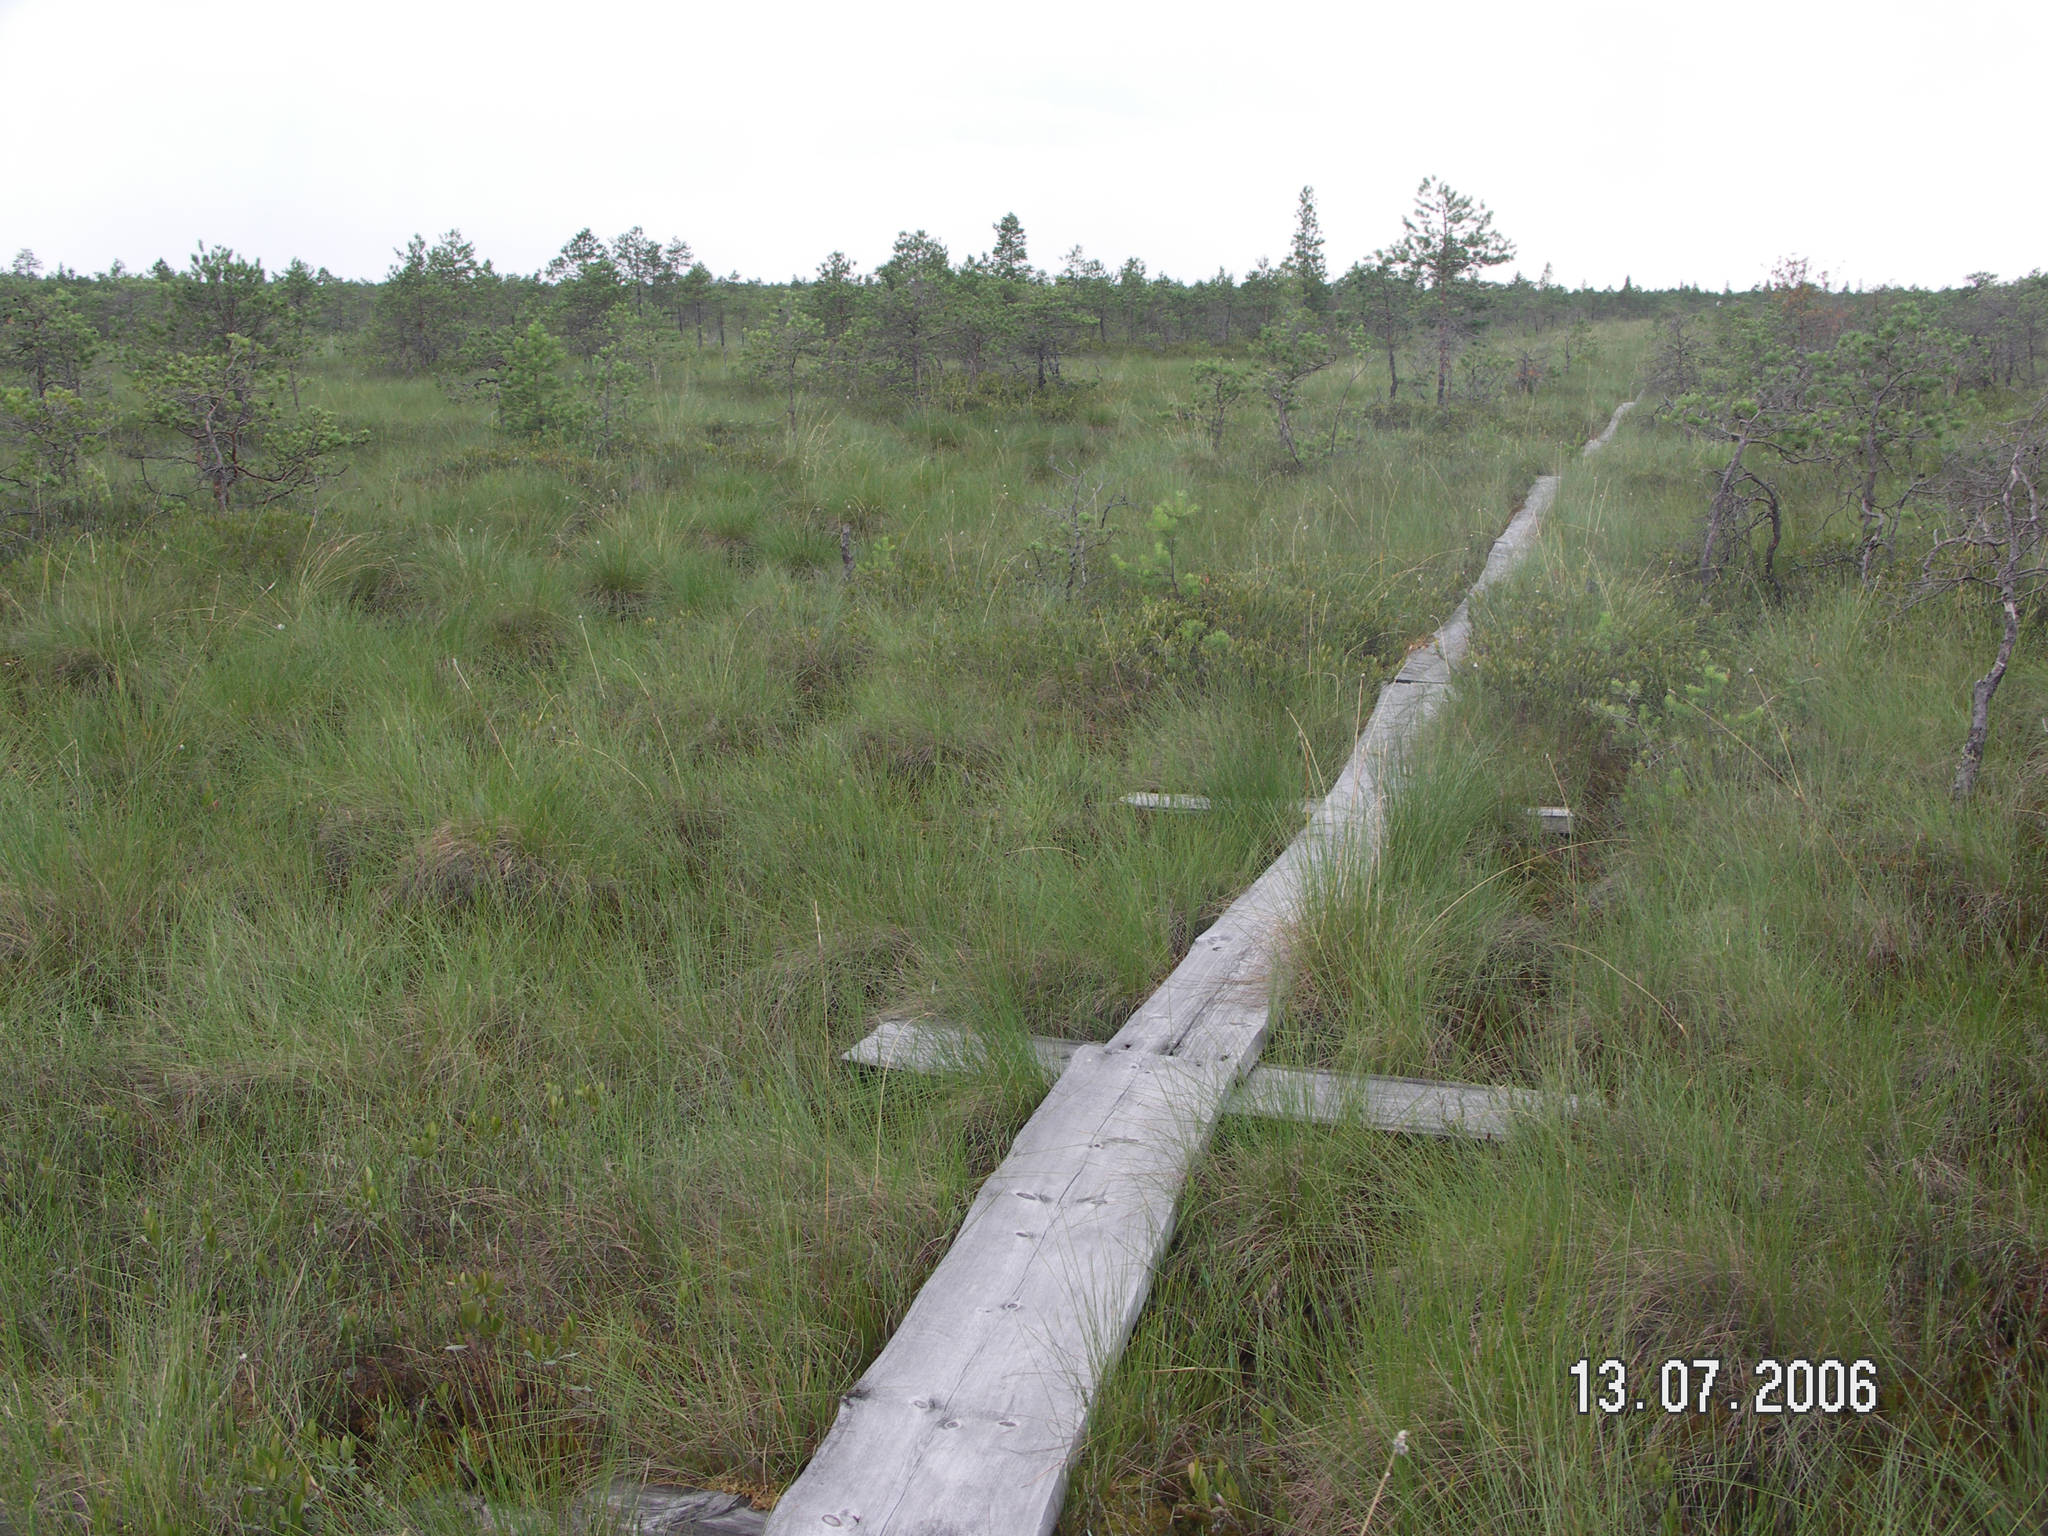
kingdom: Plantae
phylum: Tracheophyta
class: Pinopsida
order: Pinales
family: Pinaceae
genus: Pinus
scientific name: Pinus sylvestris
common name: Scots pine
